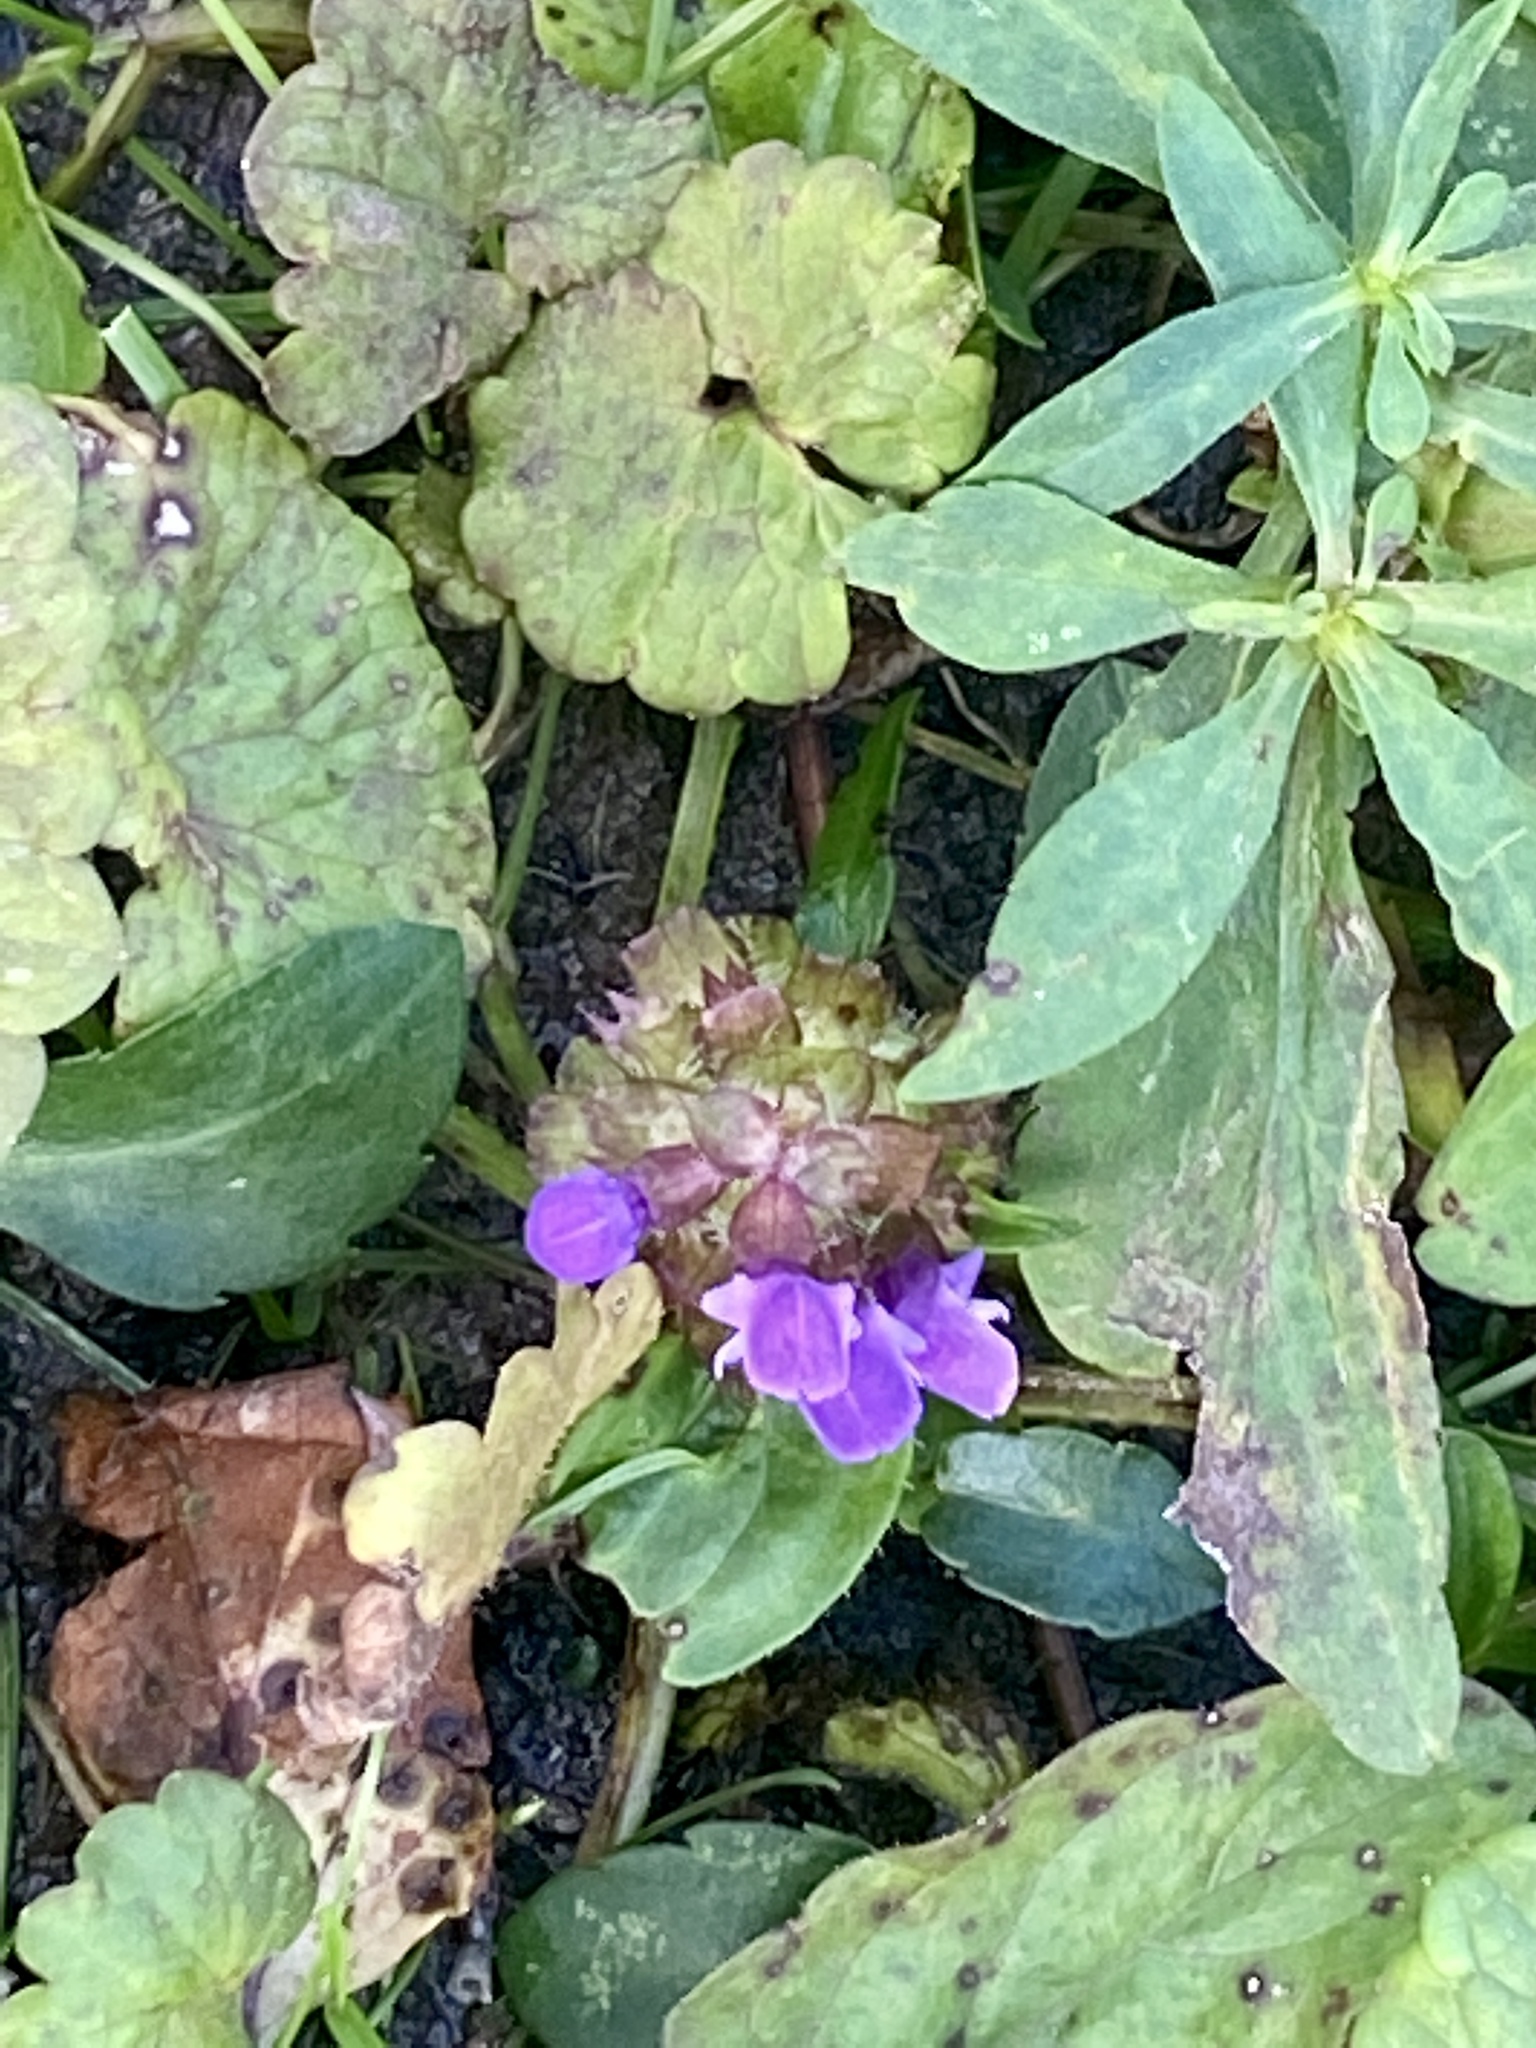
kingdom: Plantae
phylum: Tracheophyta
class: Magnoliopsida
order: Lamiales
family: Lamiaceae
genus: Prunella
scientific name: Prunella vulgaris
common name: Heal-all
